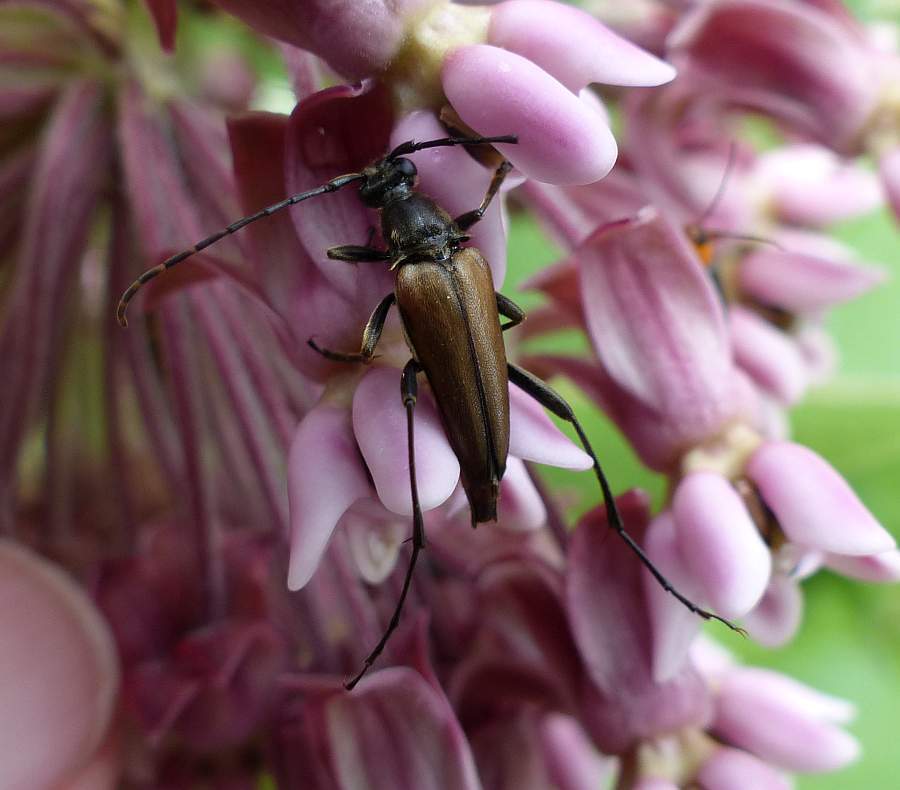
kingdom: Animalia
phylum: Arthropoda
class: Insecta
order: Coleoptera
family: Cerambycidae
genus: Etorofus
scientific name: Etorofus
